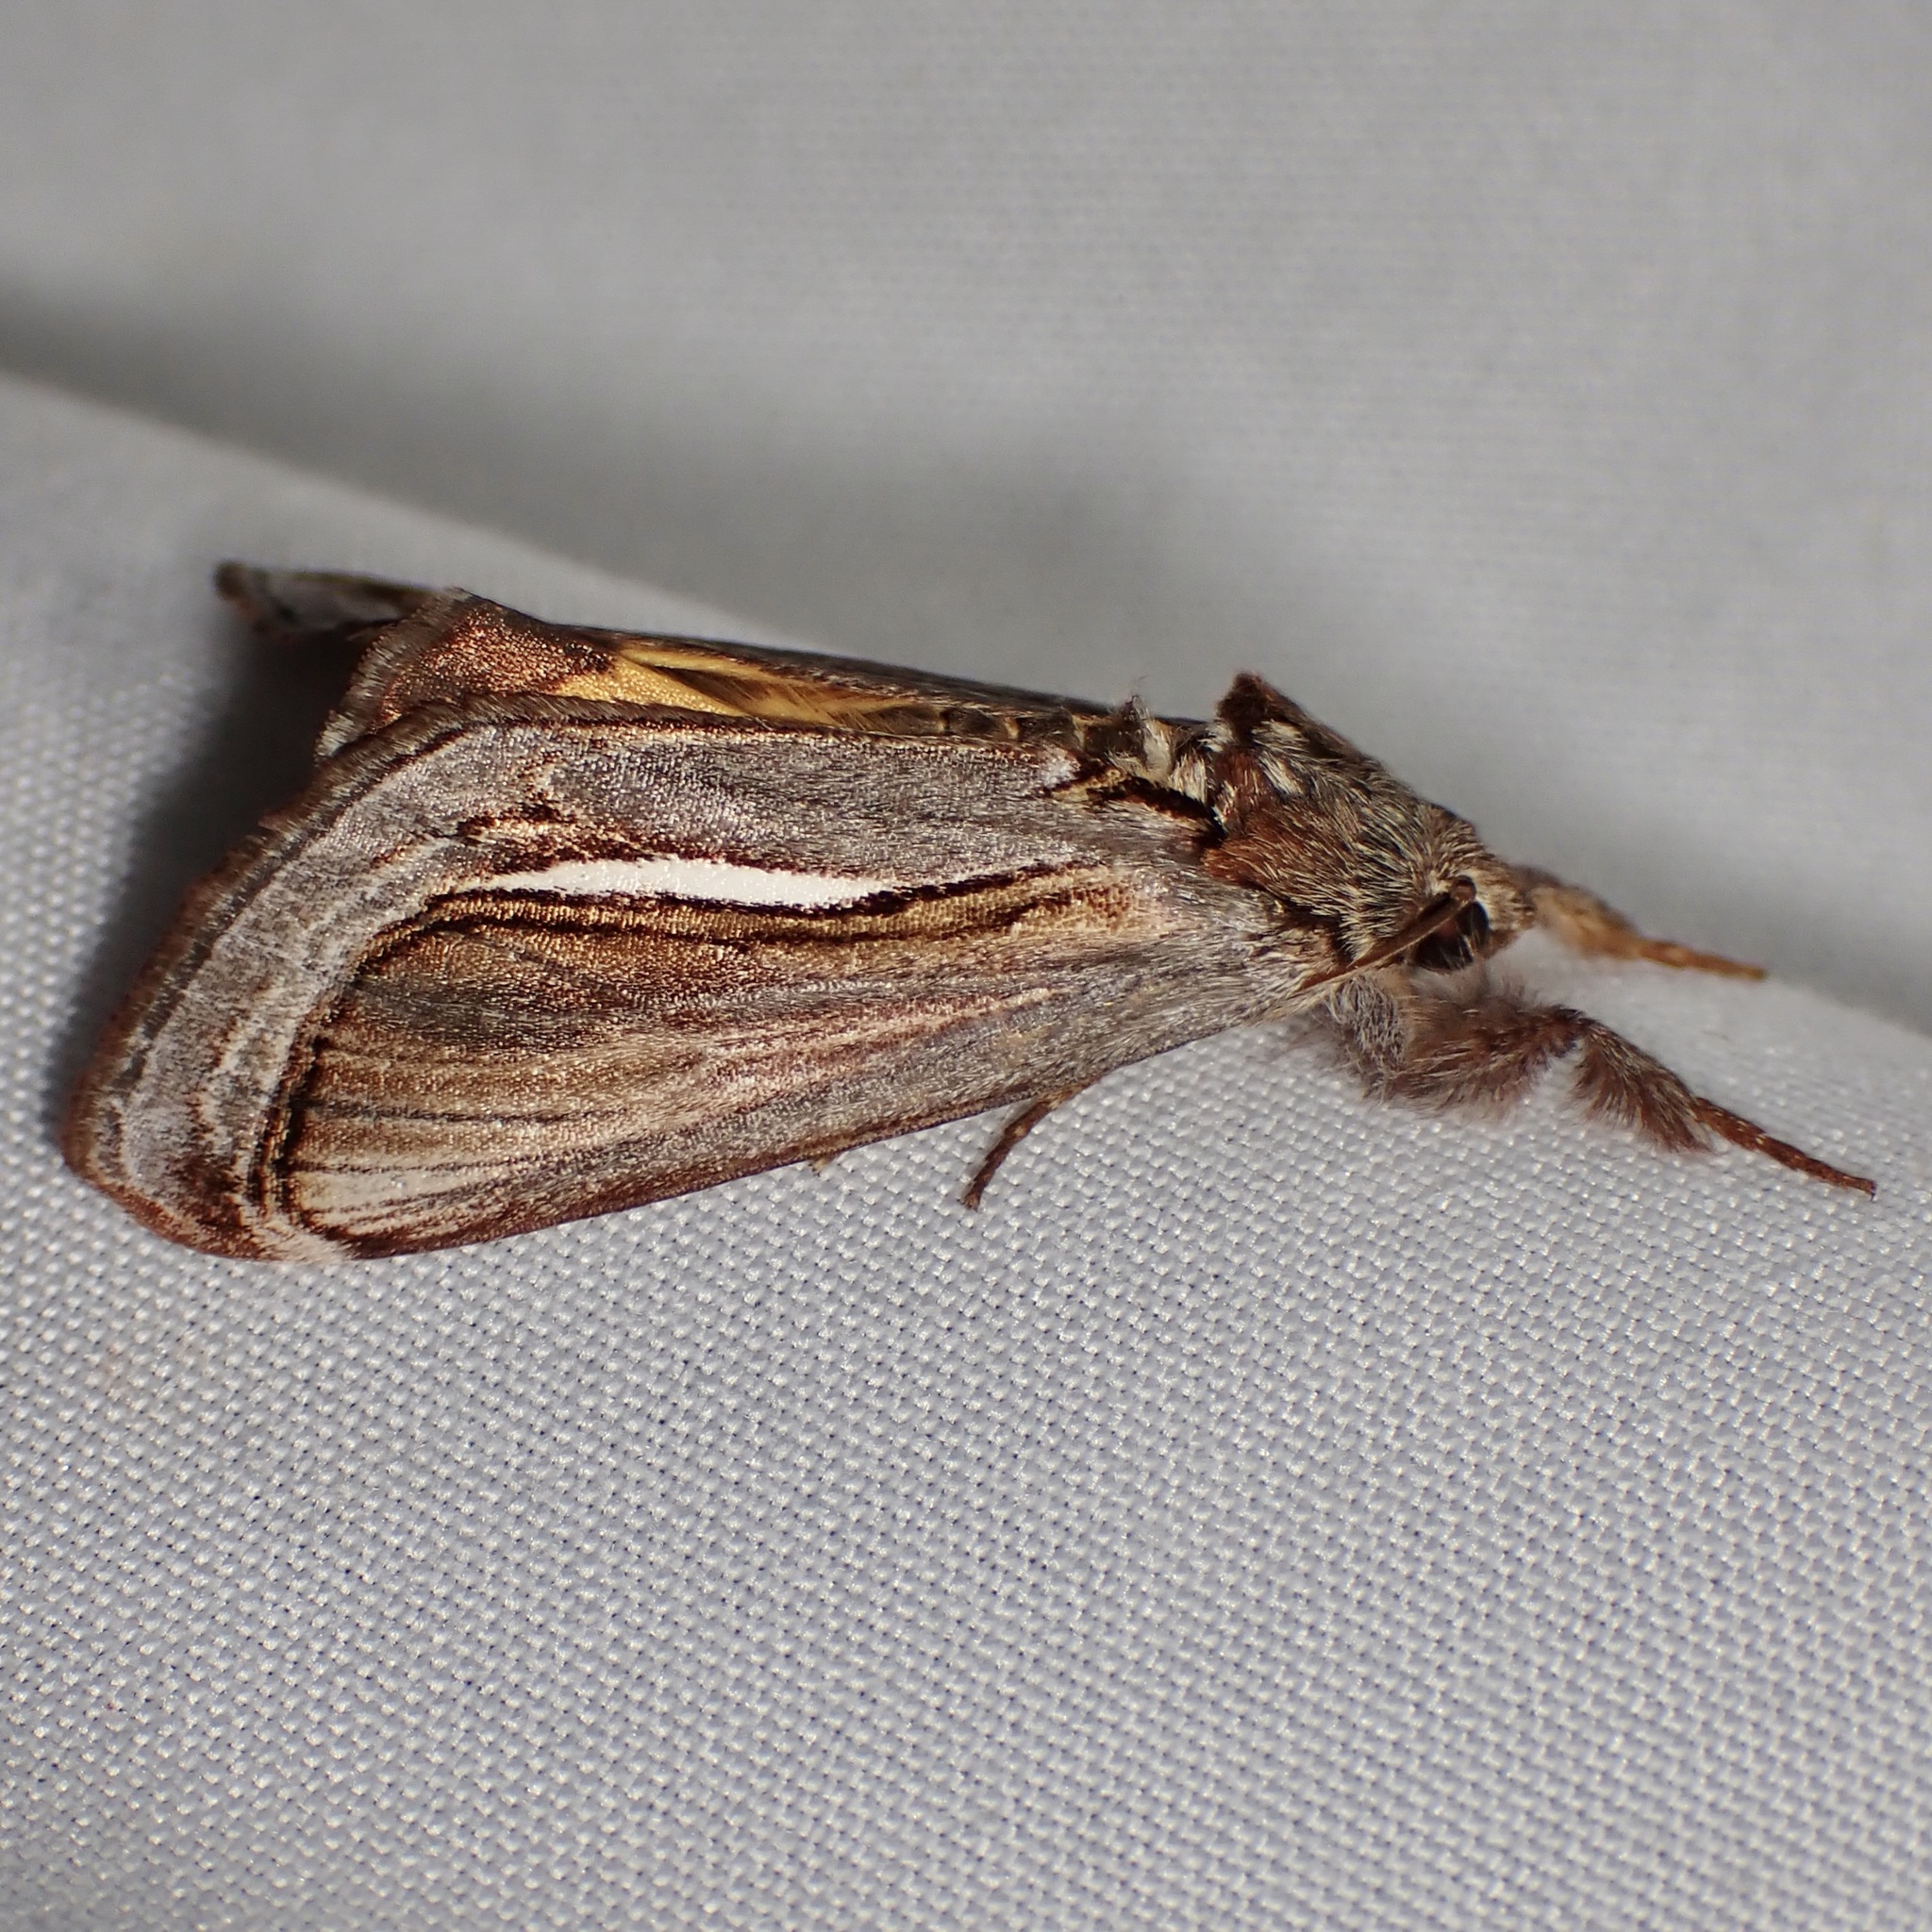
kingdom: Animalia
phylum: Arthropoda
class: Insecta
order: Lepidoptera
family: Noctuidae
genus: Gerrodes
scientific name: Gerrodes minatea
